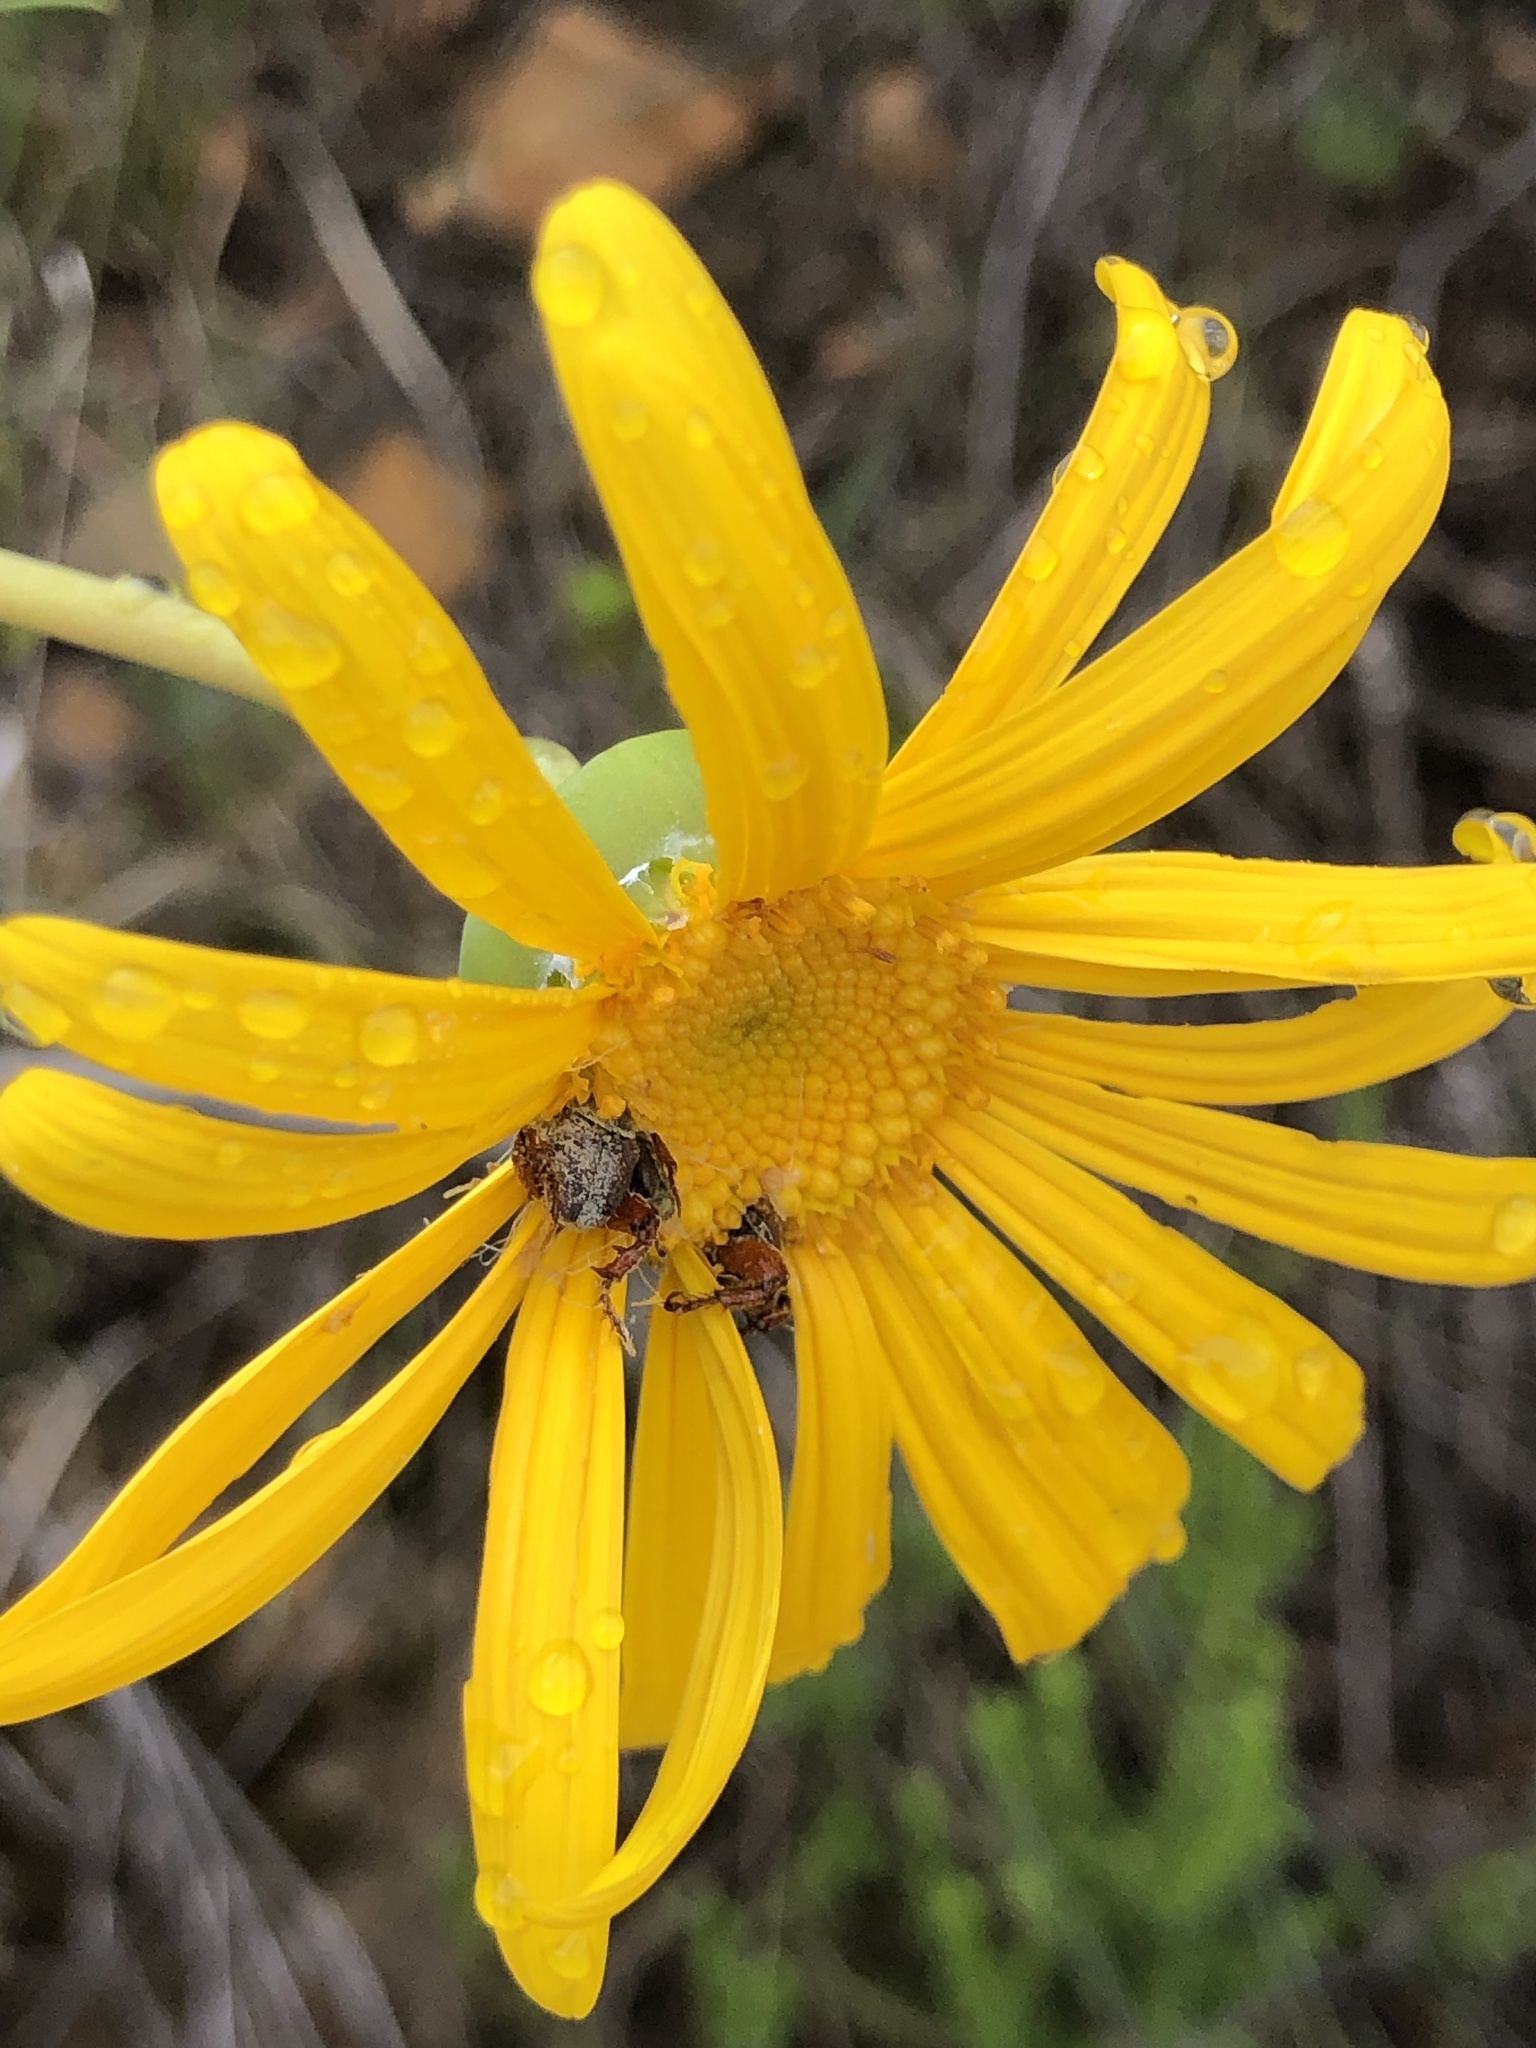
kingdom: Plantae
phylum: Tracheophyta
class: Magnoliopsida
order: Asterales
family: Asteraceae
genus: Euryops
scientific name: Euryops speciosissimus
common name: Clanwilliam daisy
